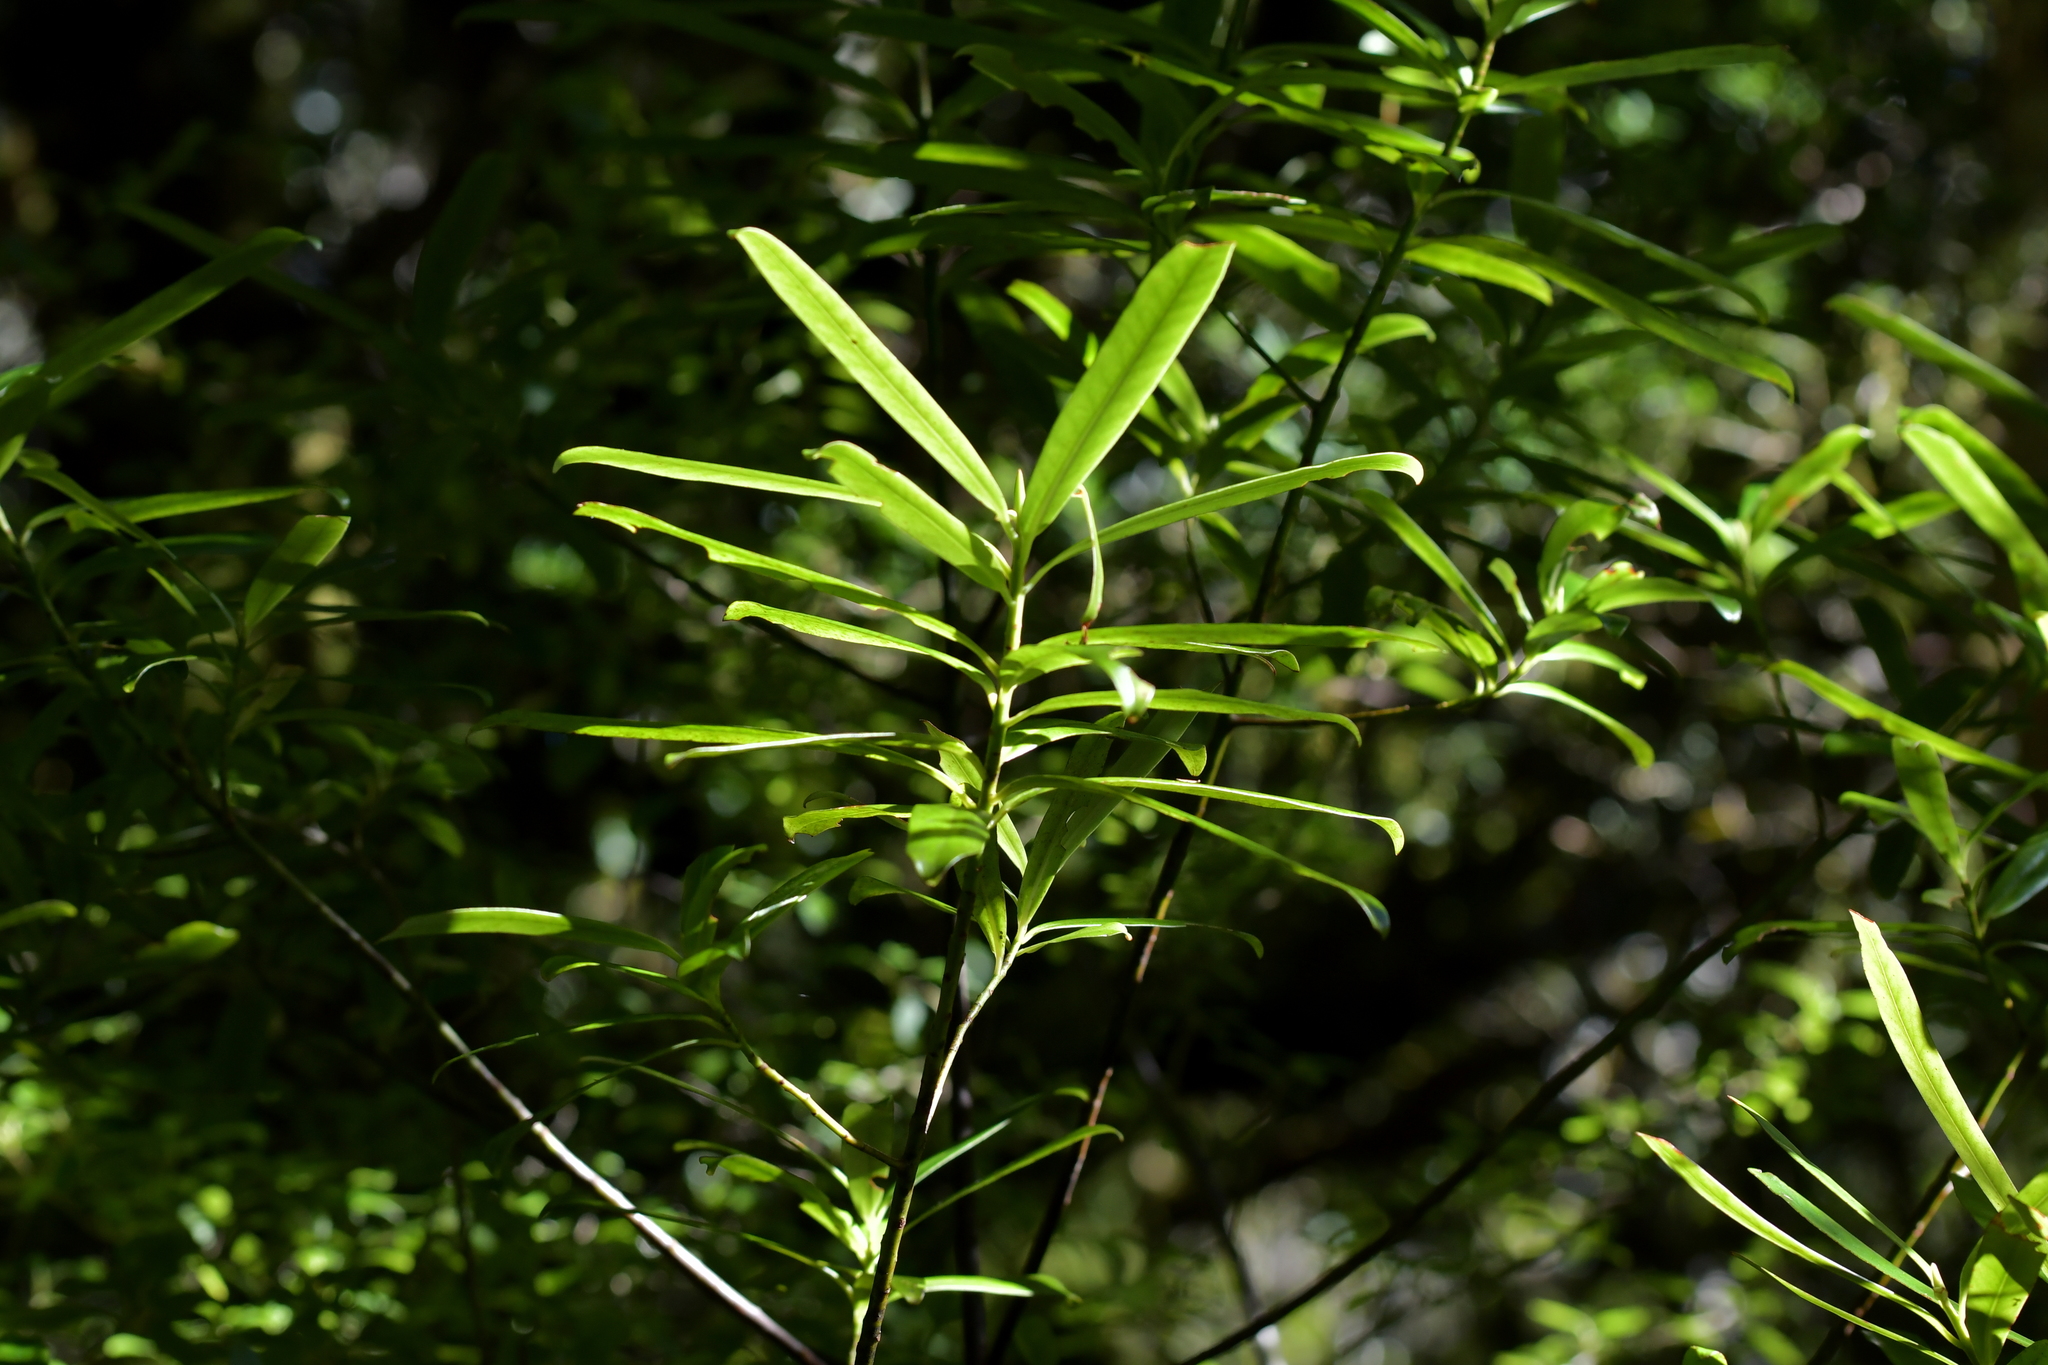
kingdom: Plantae
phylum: Tracheophyta
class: Magnoliopsida
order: Ericales
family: Primulaceae
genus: Myrsine
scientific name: Myrsine salicina
